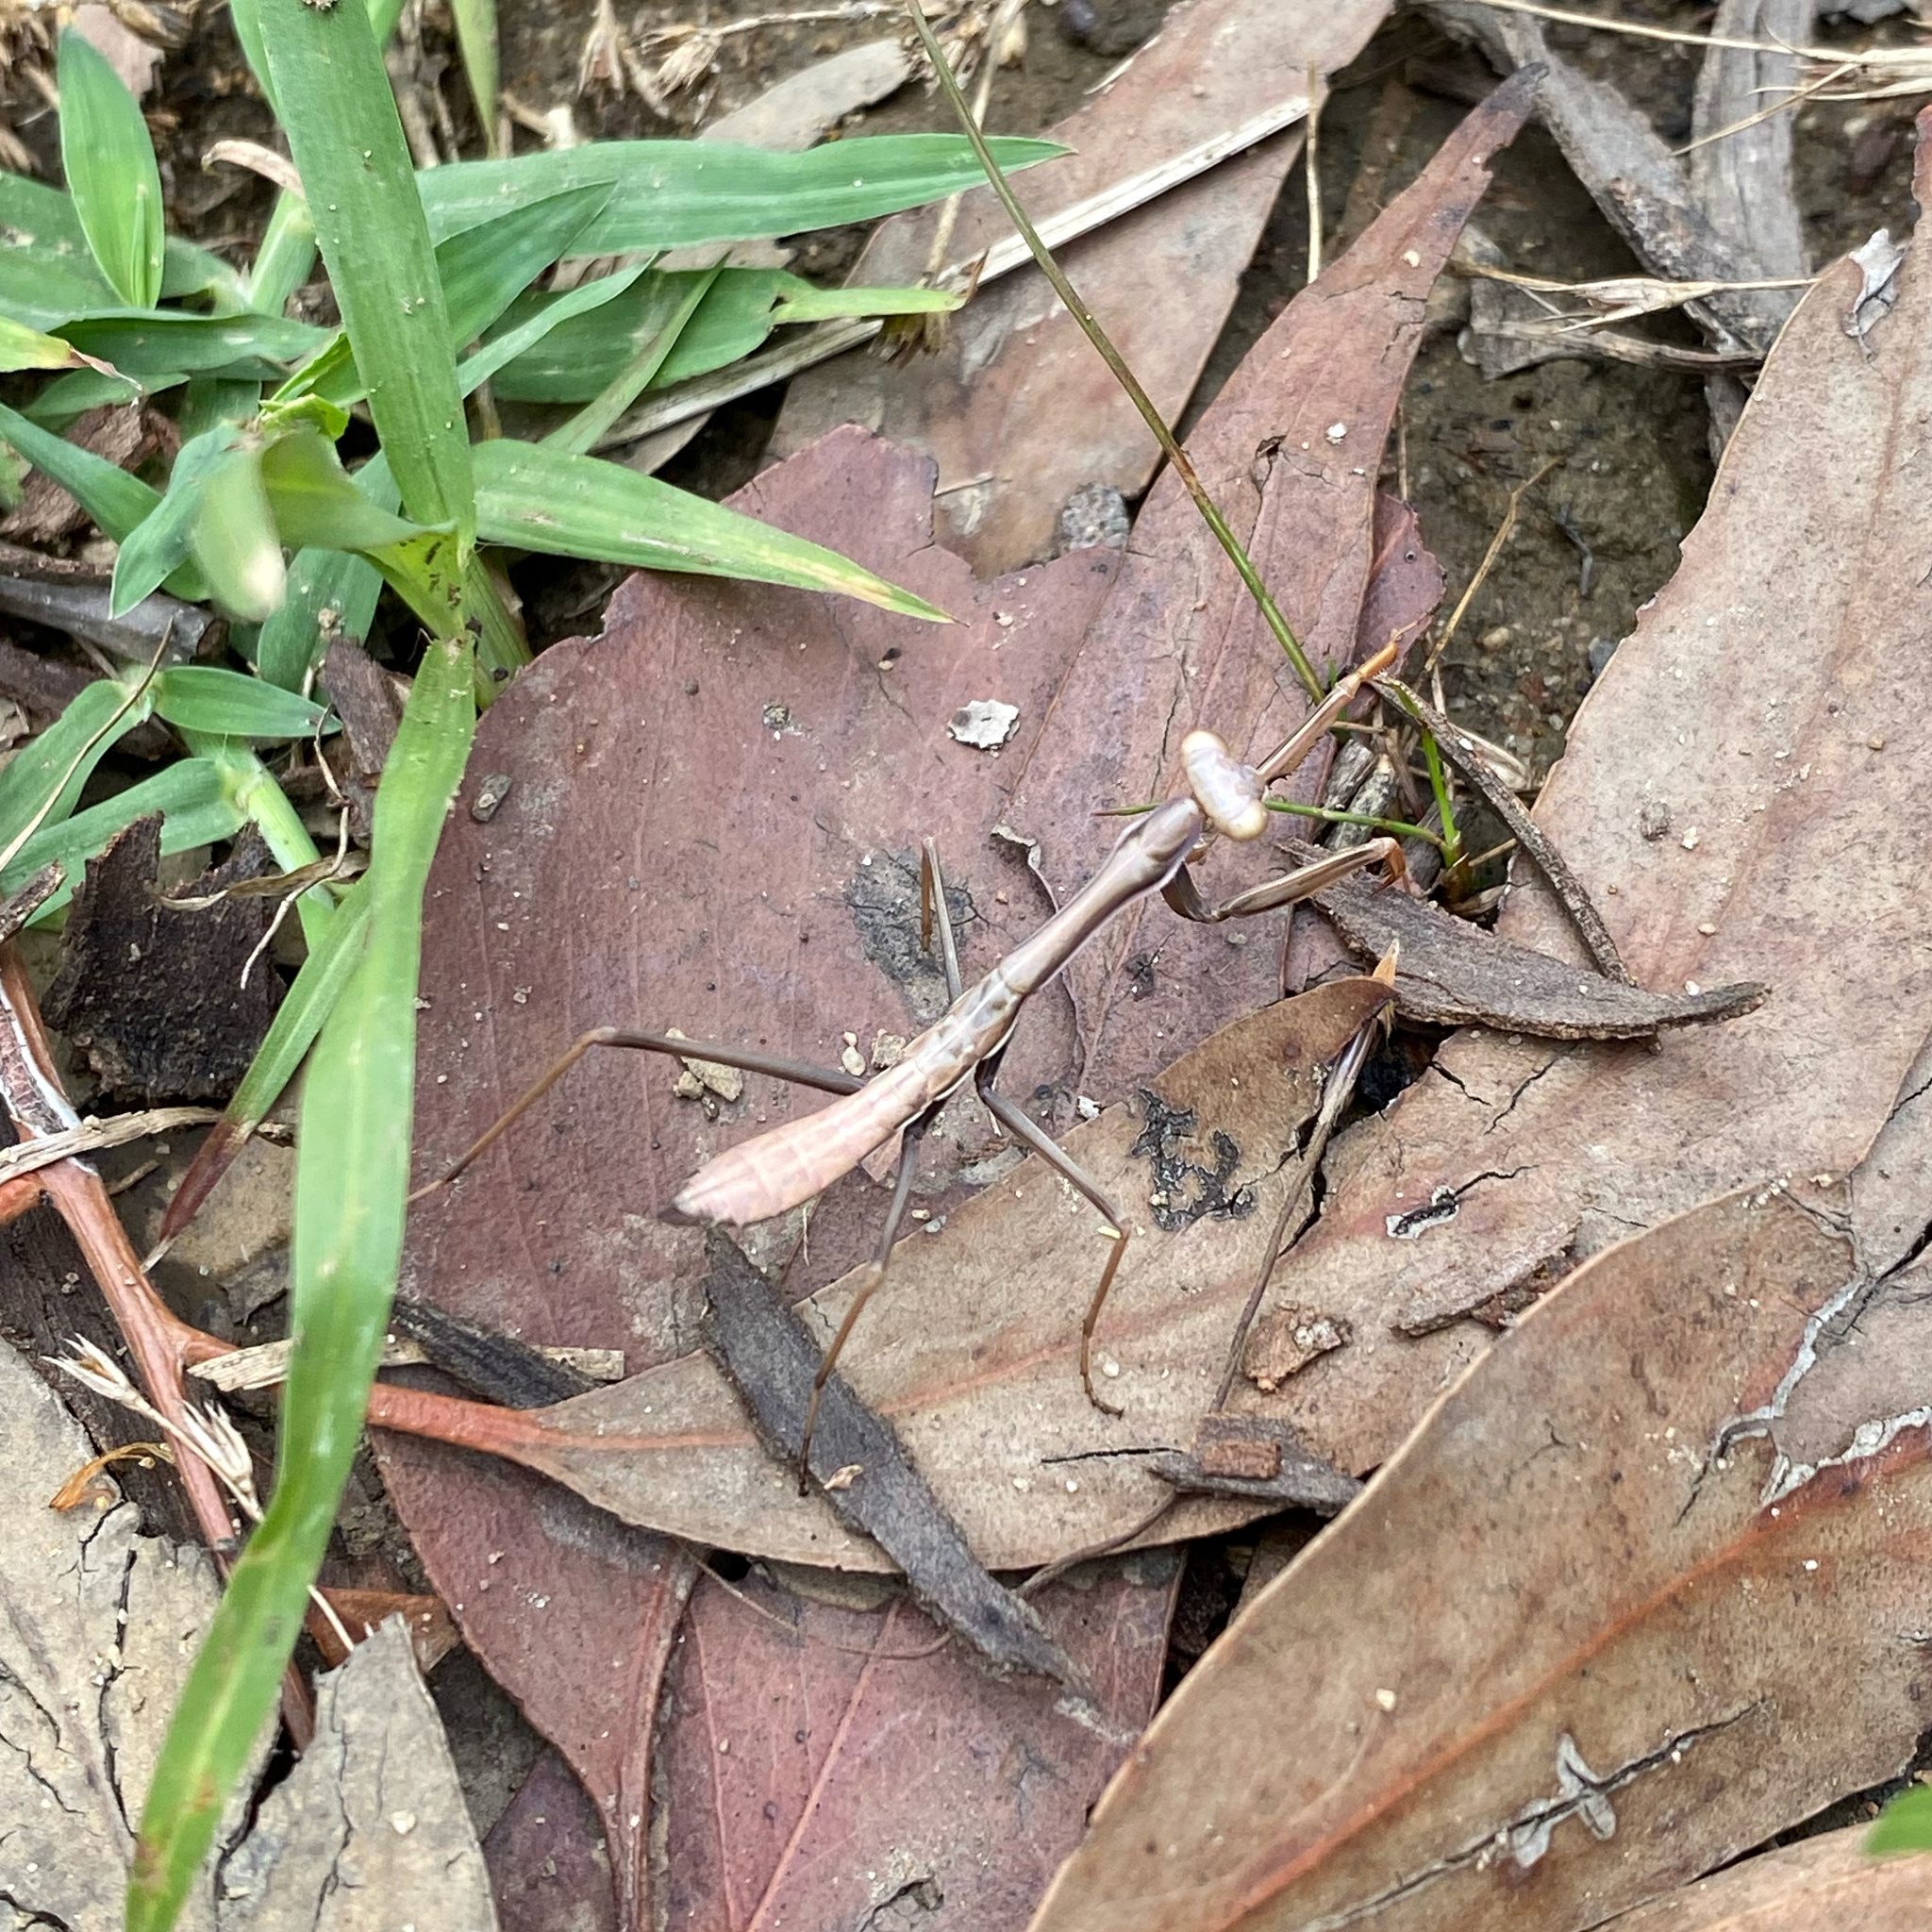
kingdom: Animalia
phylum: Arthropoda
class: Insecta
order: Mantodea
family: Mantidae
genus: Pseudomantis
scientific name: Pseudomantis albofimbriata
